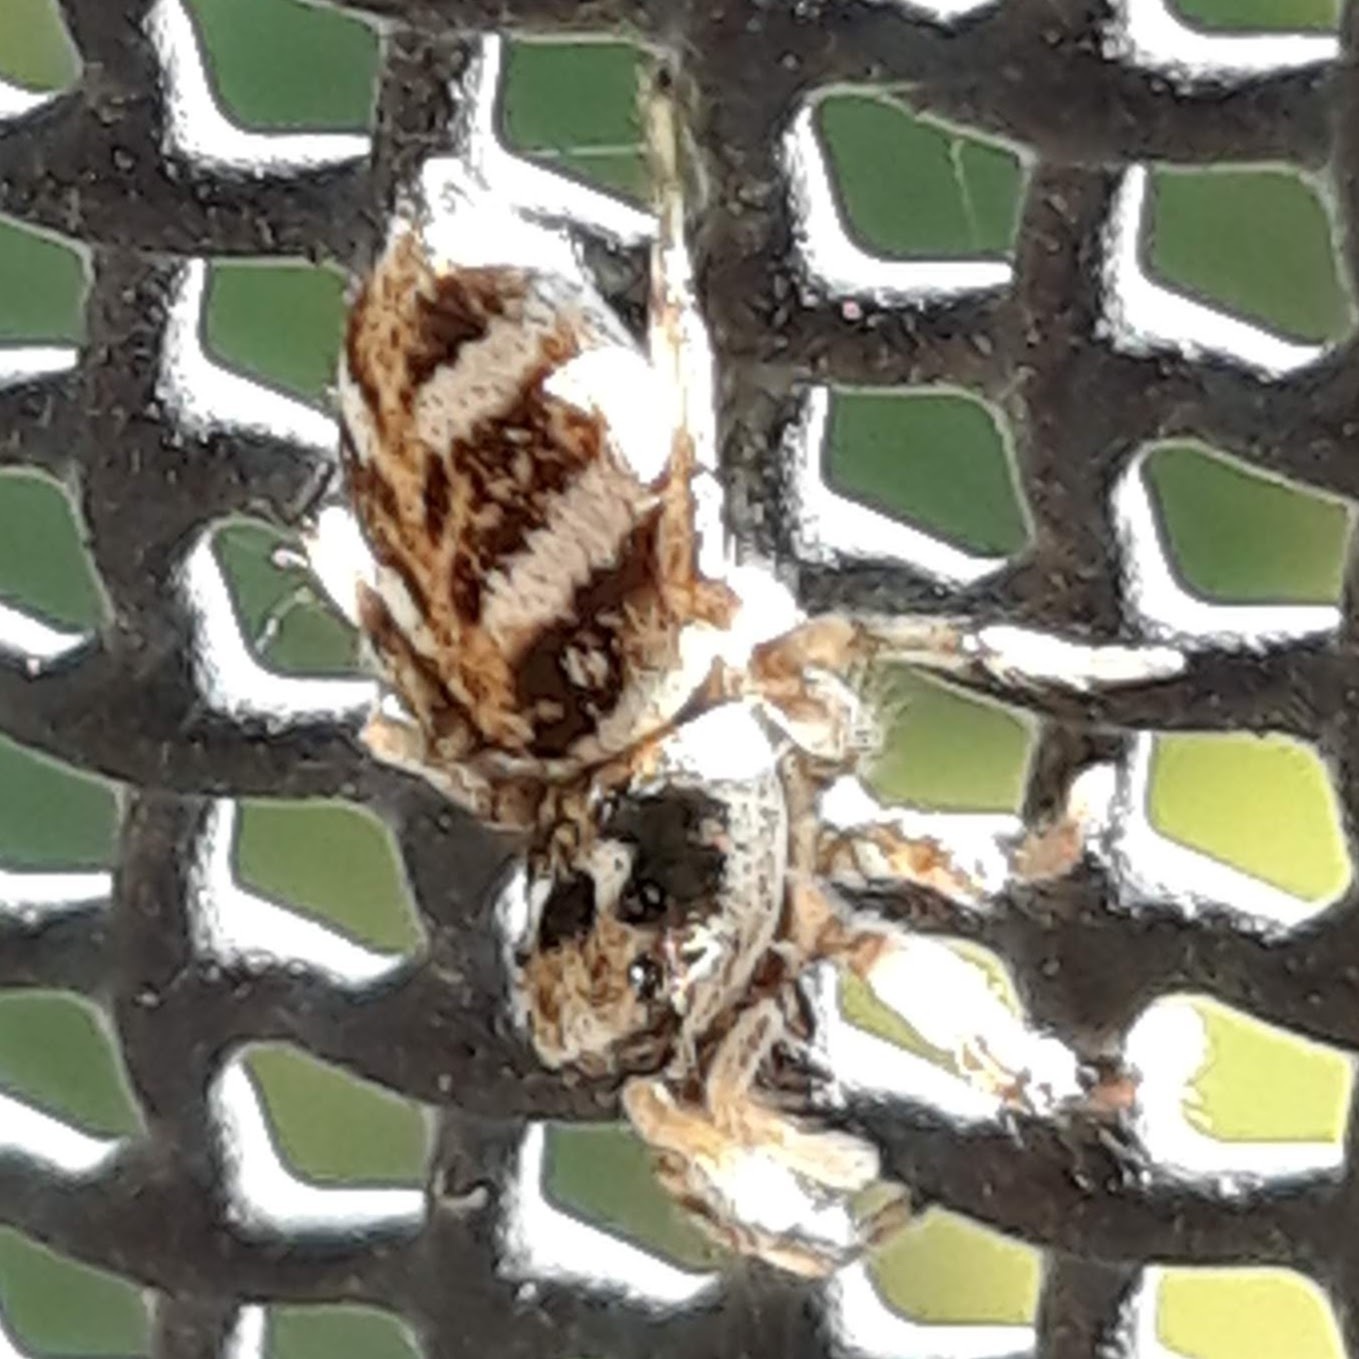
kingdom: Animalia
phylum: Arthropoda
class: Arachnida
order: Araneae
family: Salticidae
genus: Salticus
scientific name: Salticus scenicus
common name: Zebra jumper
